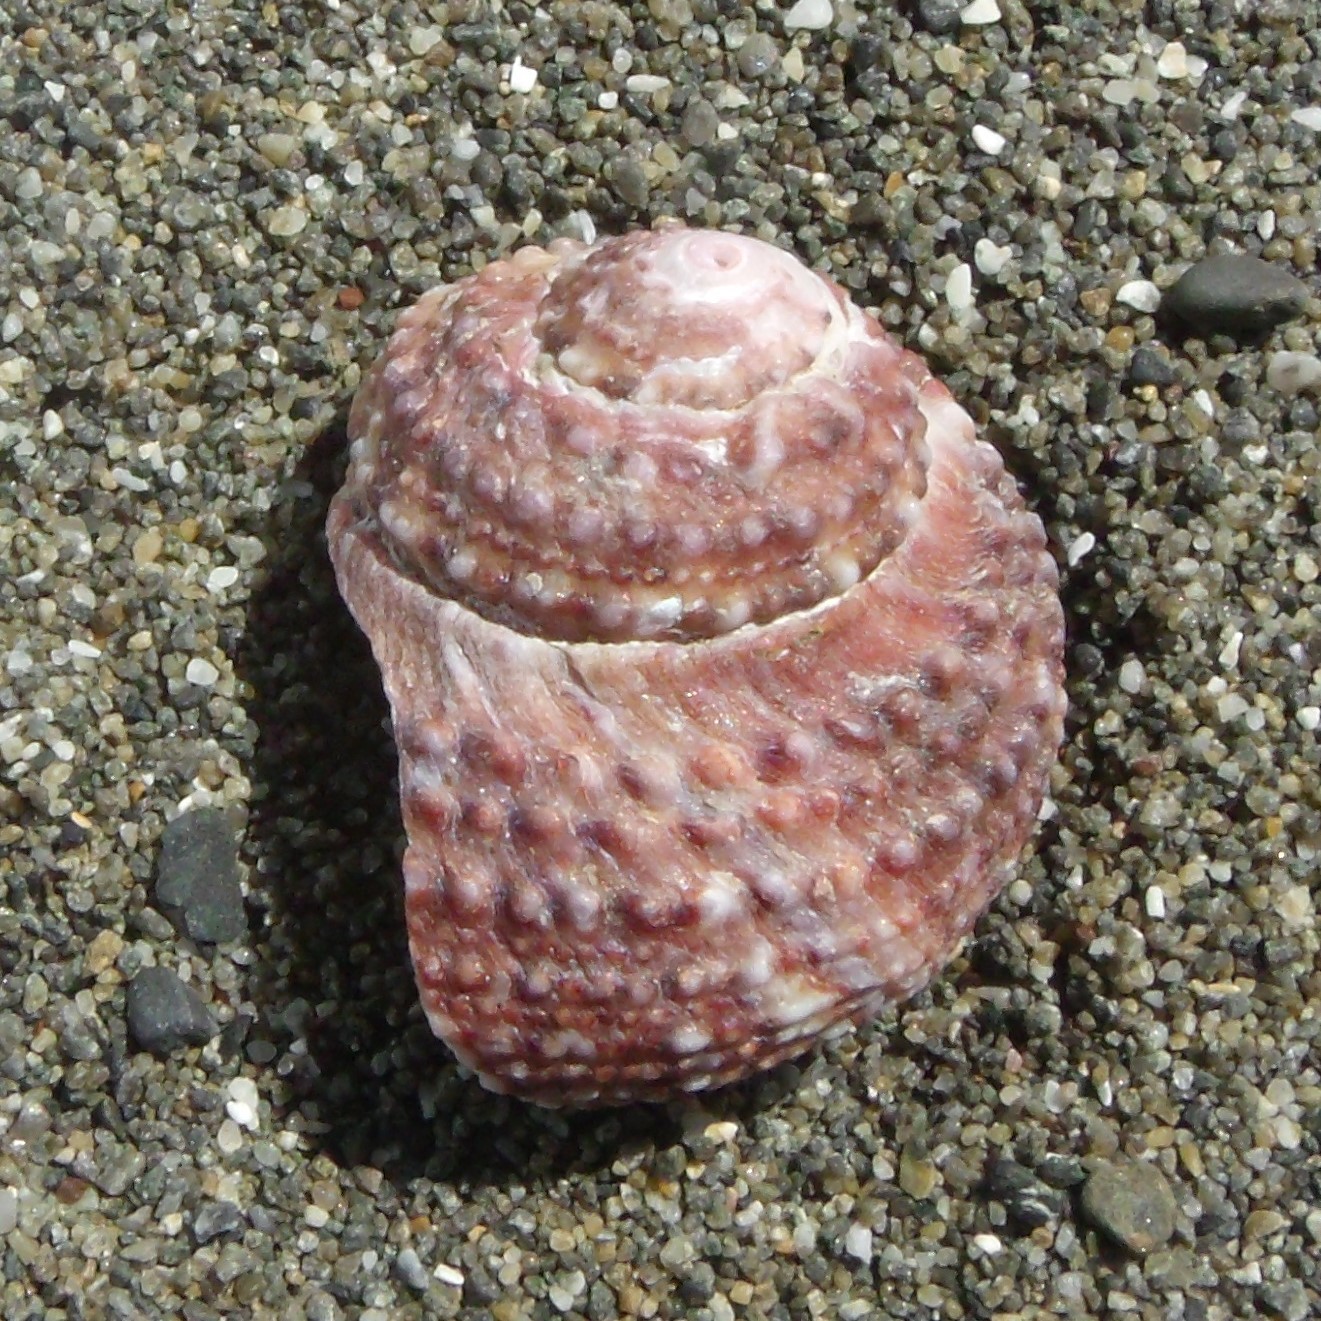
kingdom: Animalia
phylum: Mollusca
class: Gastropoda
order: Trochida
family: Turbinidae
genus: Modelia
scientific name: Modelia granosa
